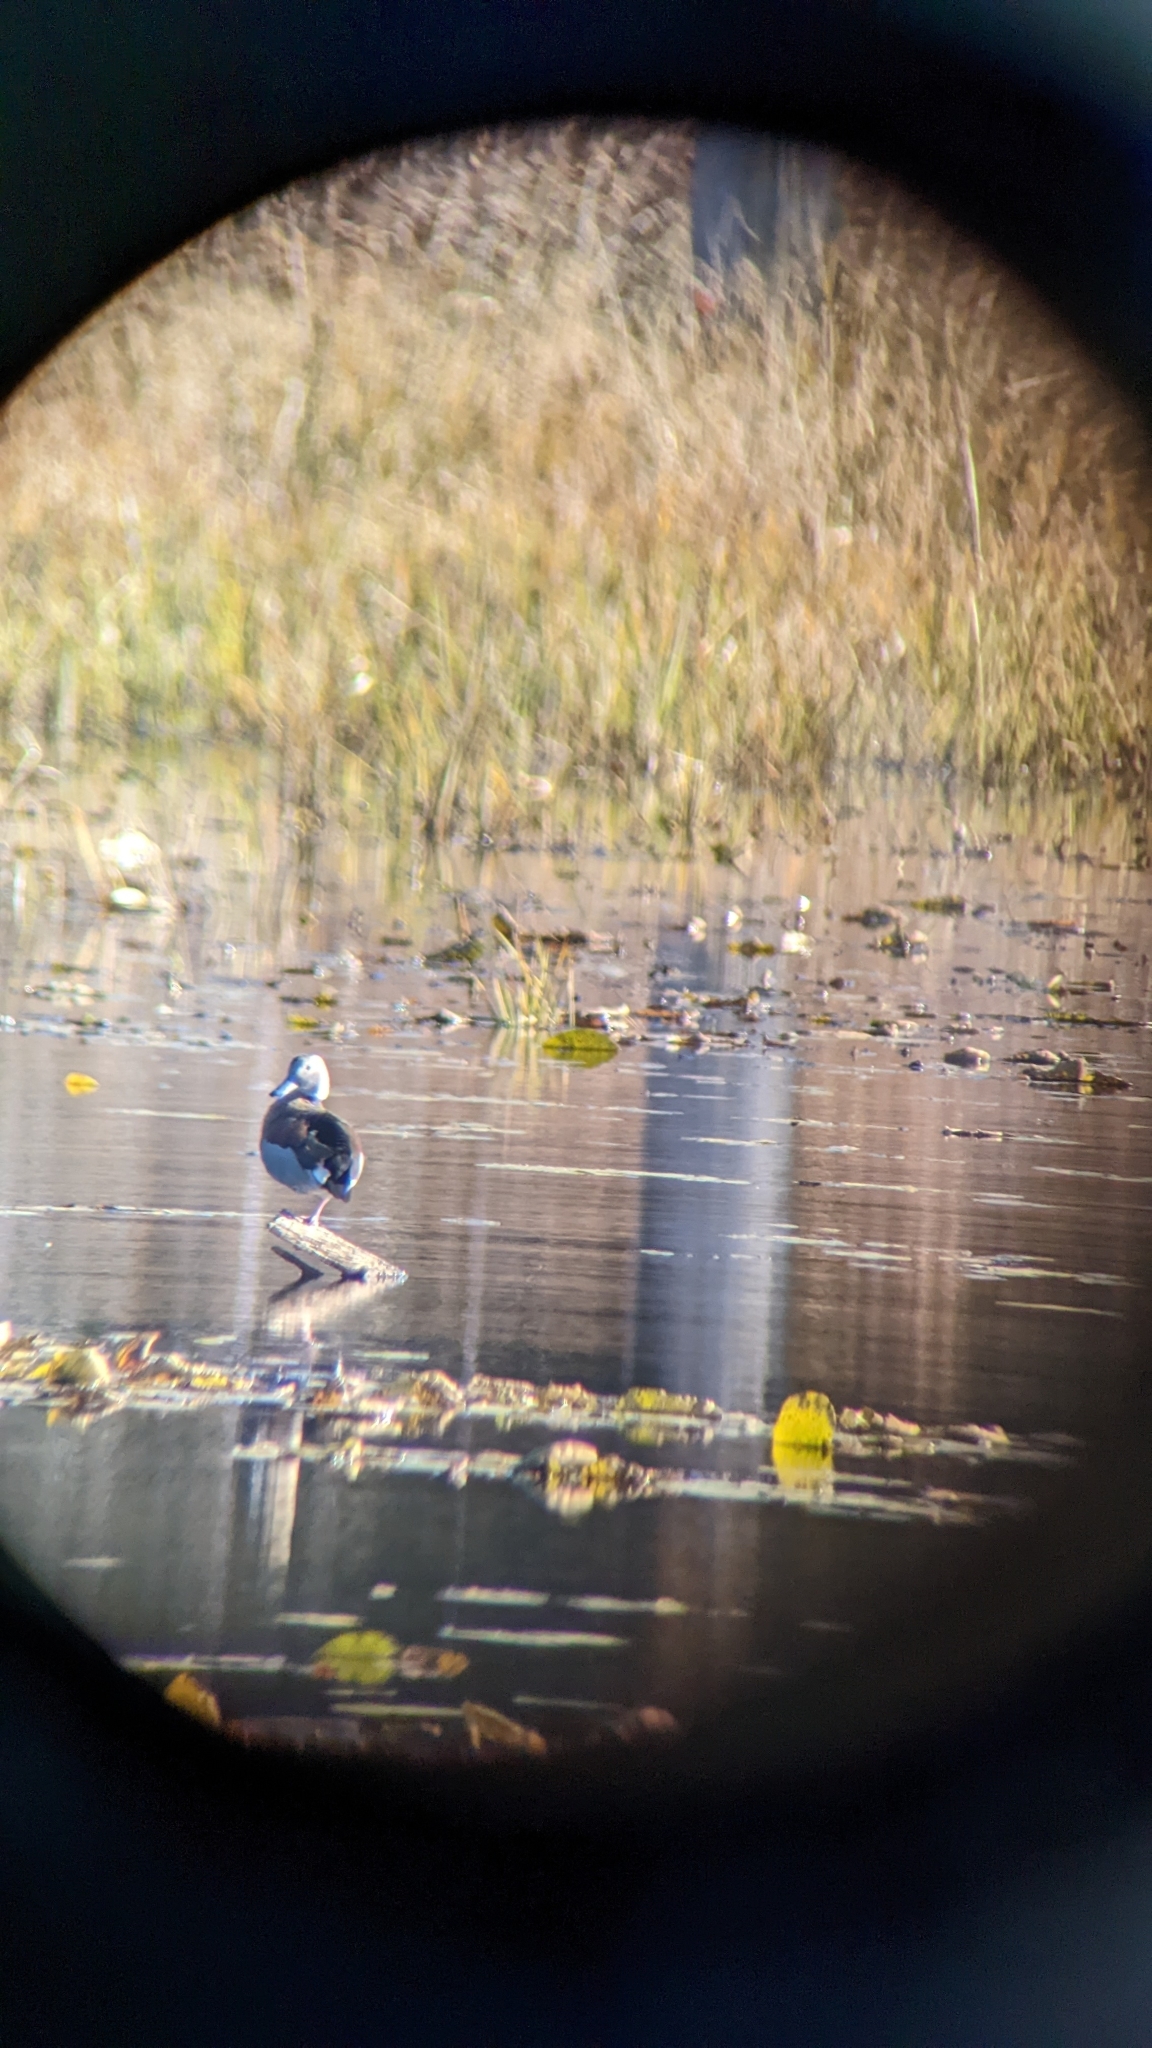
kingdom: Animalia
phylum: Chordata
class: Aves
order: Anseriformes
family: Anatidae
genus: Callonetta
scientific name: Callonetta leucophrys
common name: Ringed teal
